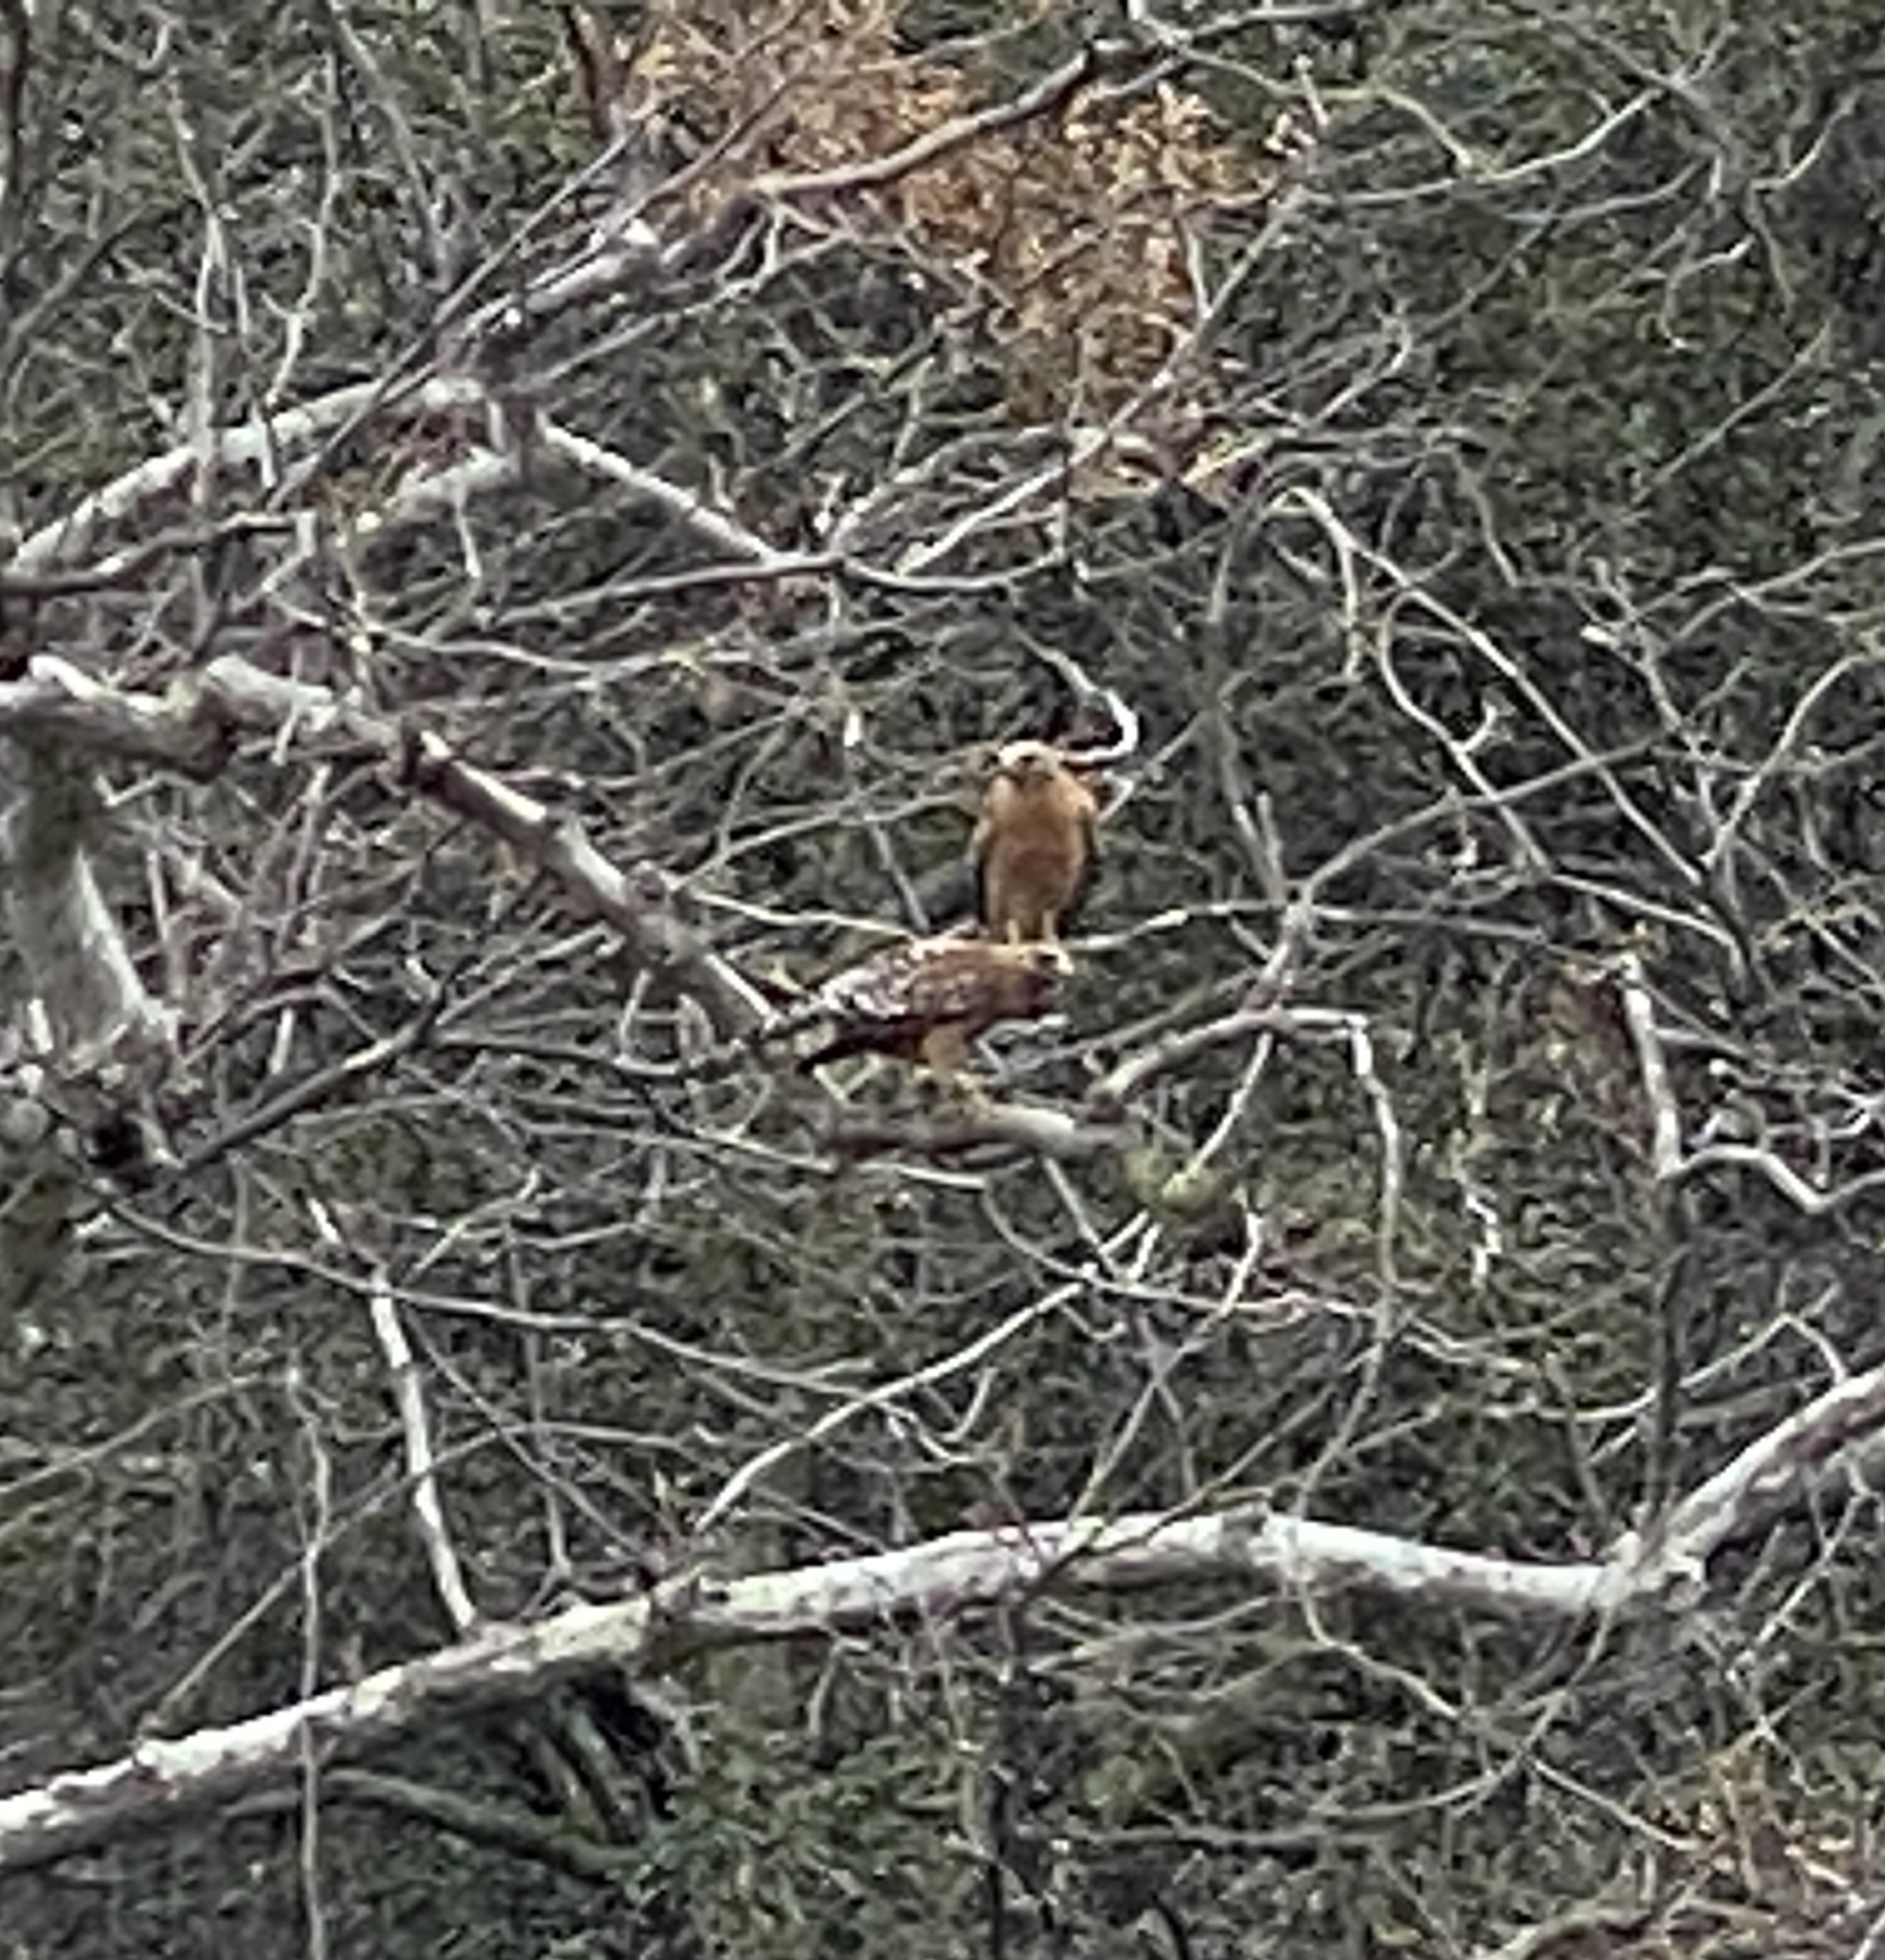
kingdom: Animalia
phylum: Chordata
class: Aves
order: Accipitriformes
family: Accipitridae
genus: Buteo
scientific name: Buteo lineatus
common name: Red-shouldered hawk
